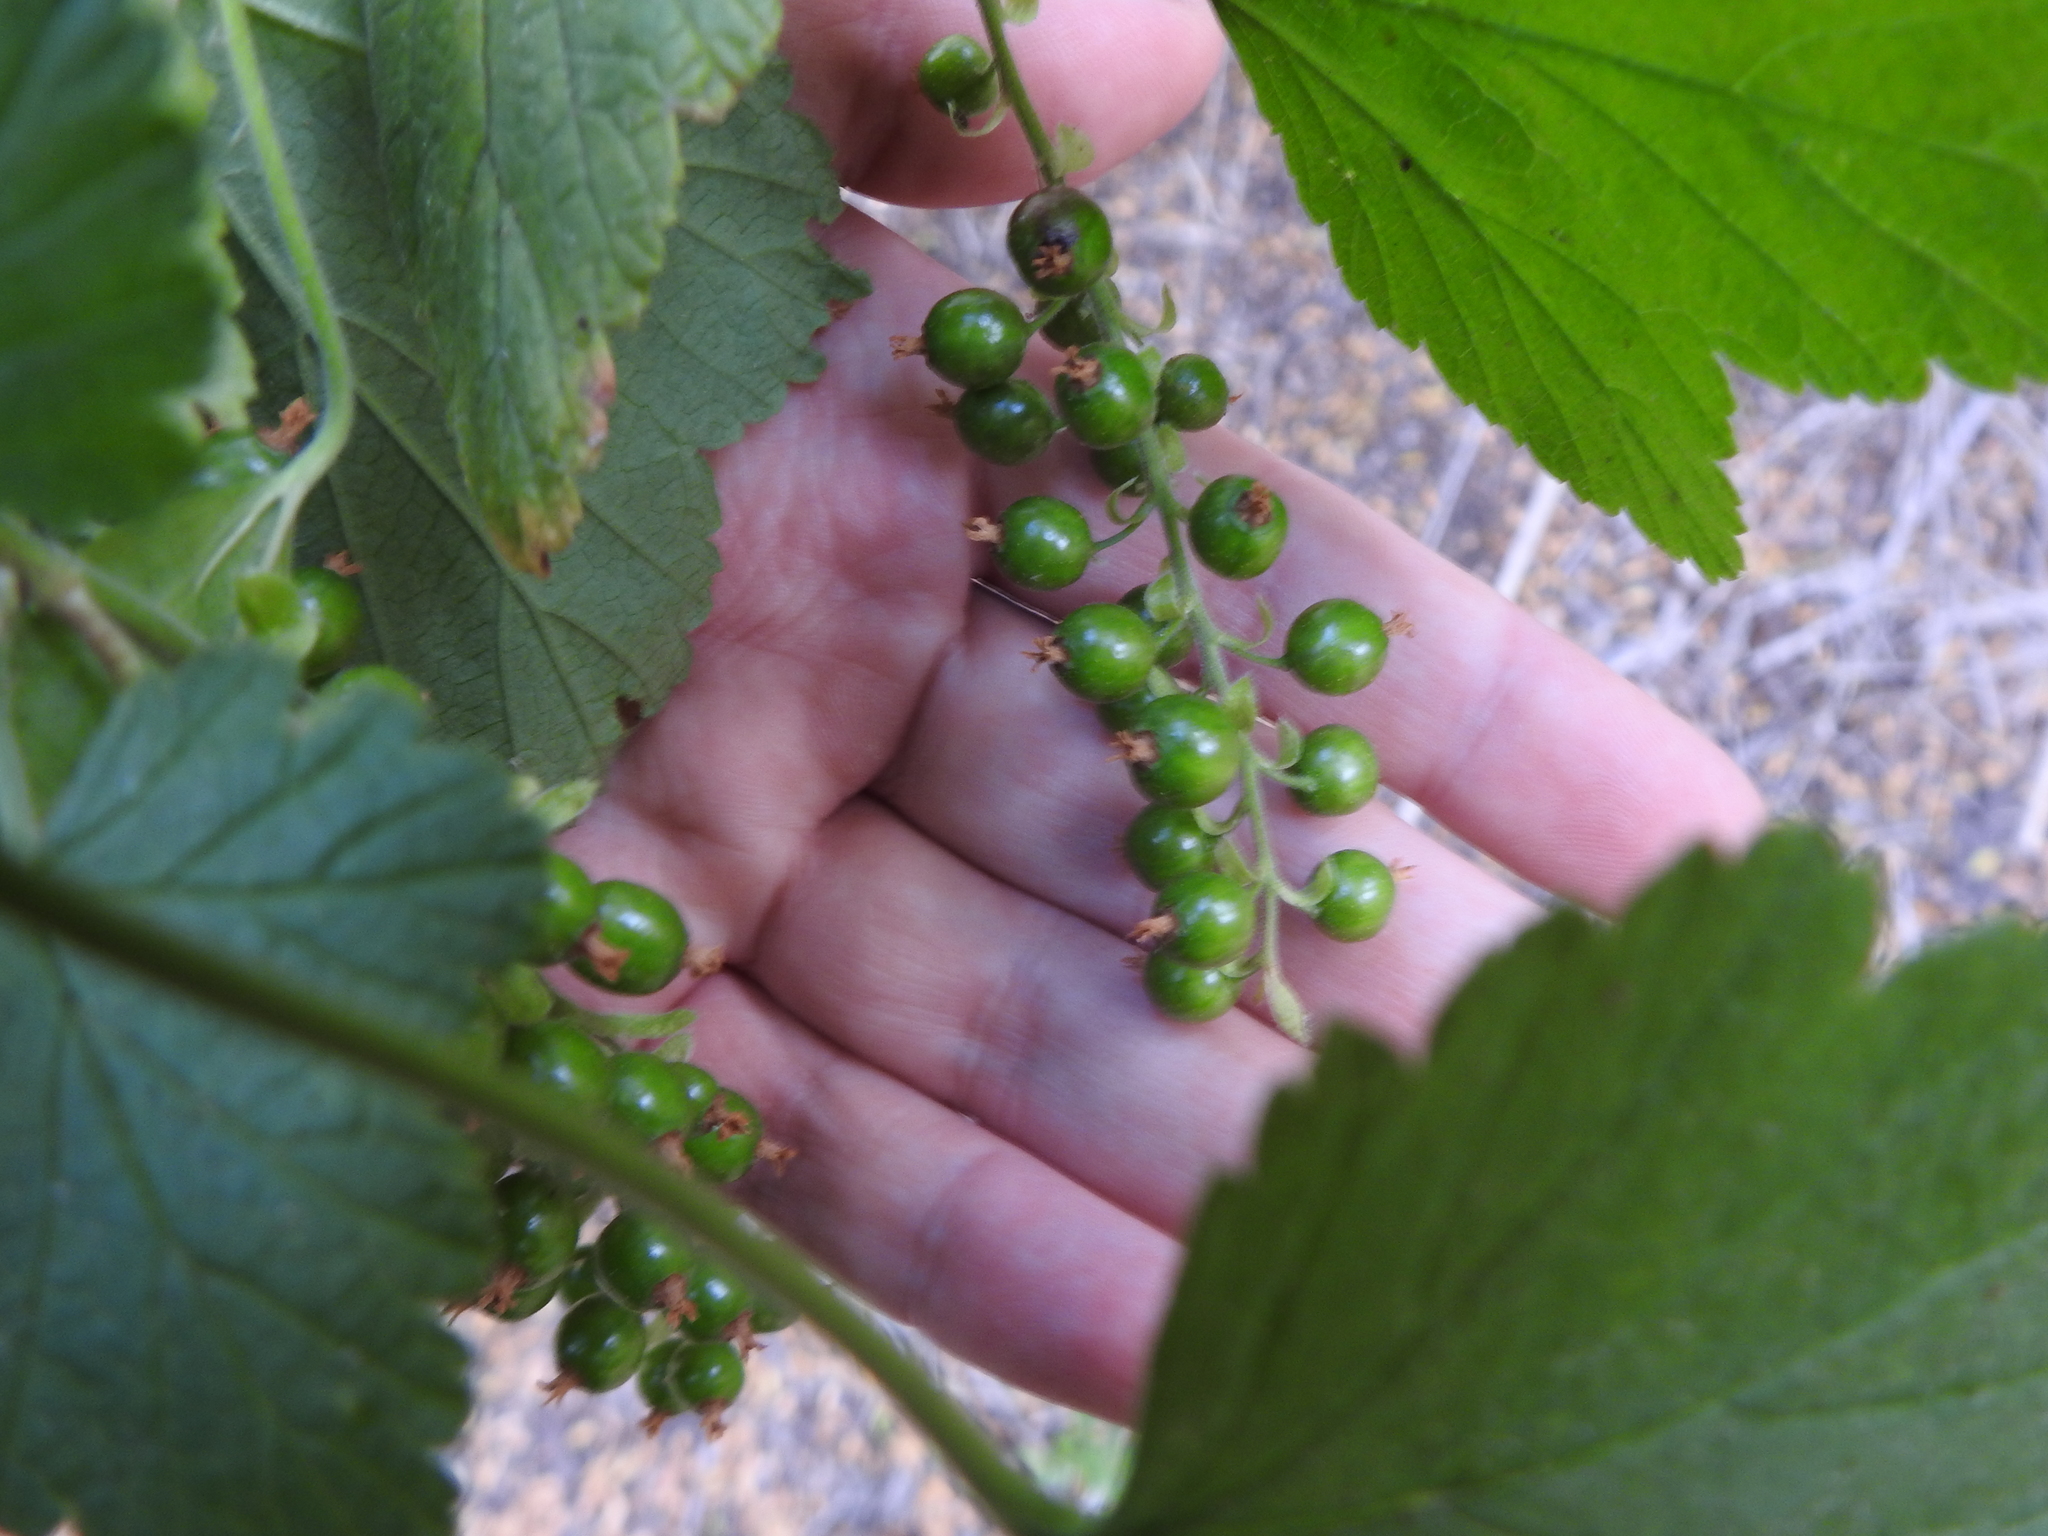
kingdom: Plantae
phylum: Tracheophyta
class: Magnoliopsida
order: Saxifragales
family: Grossulariaceae
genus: Ribes
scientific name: Ribes magellanicum
